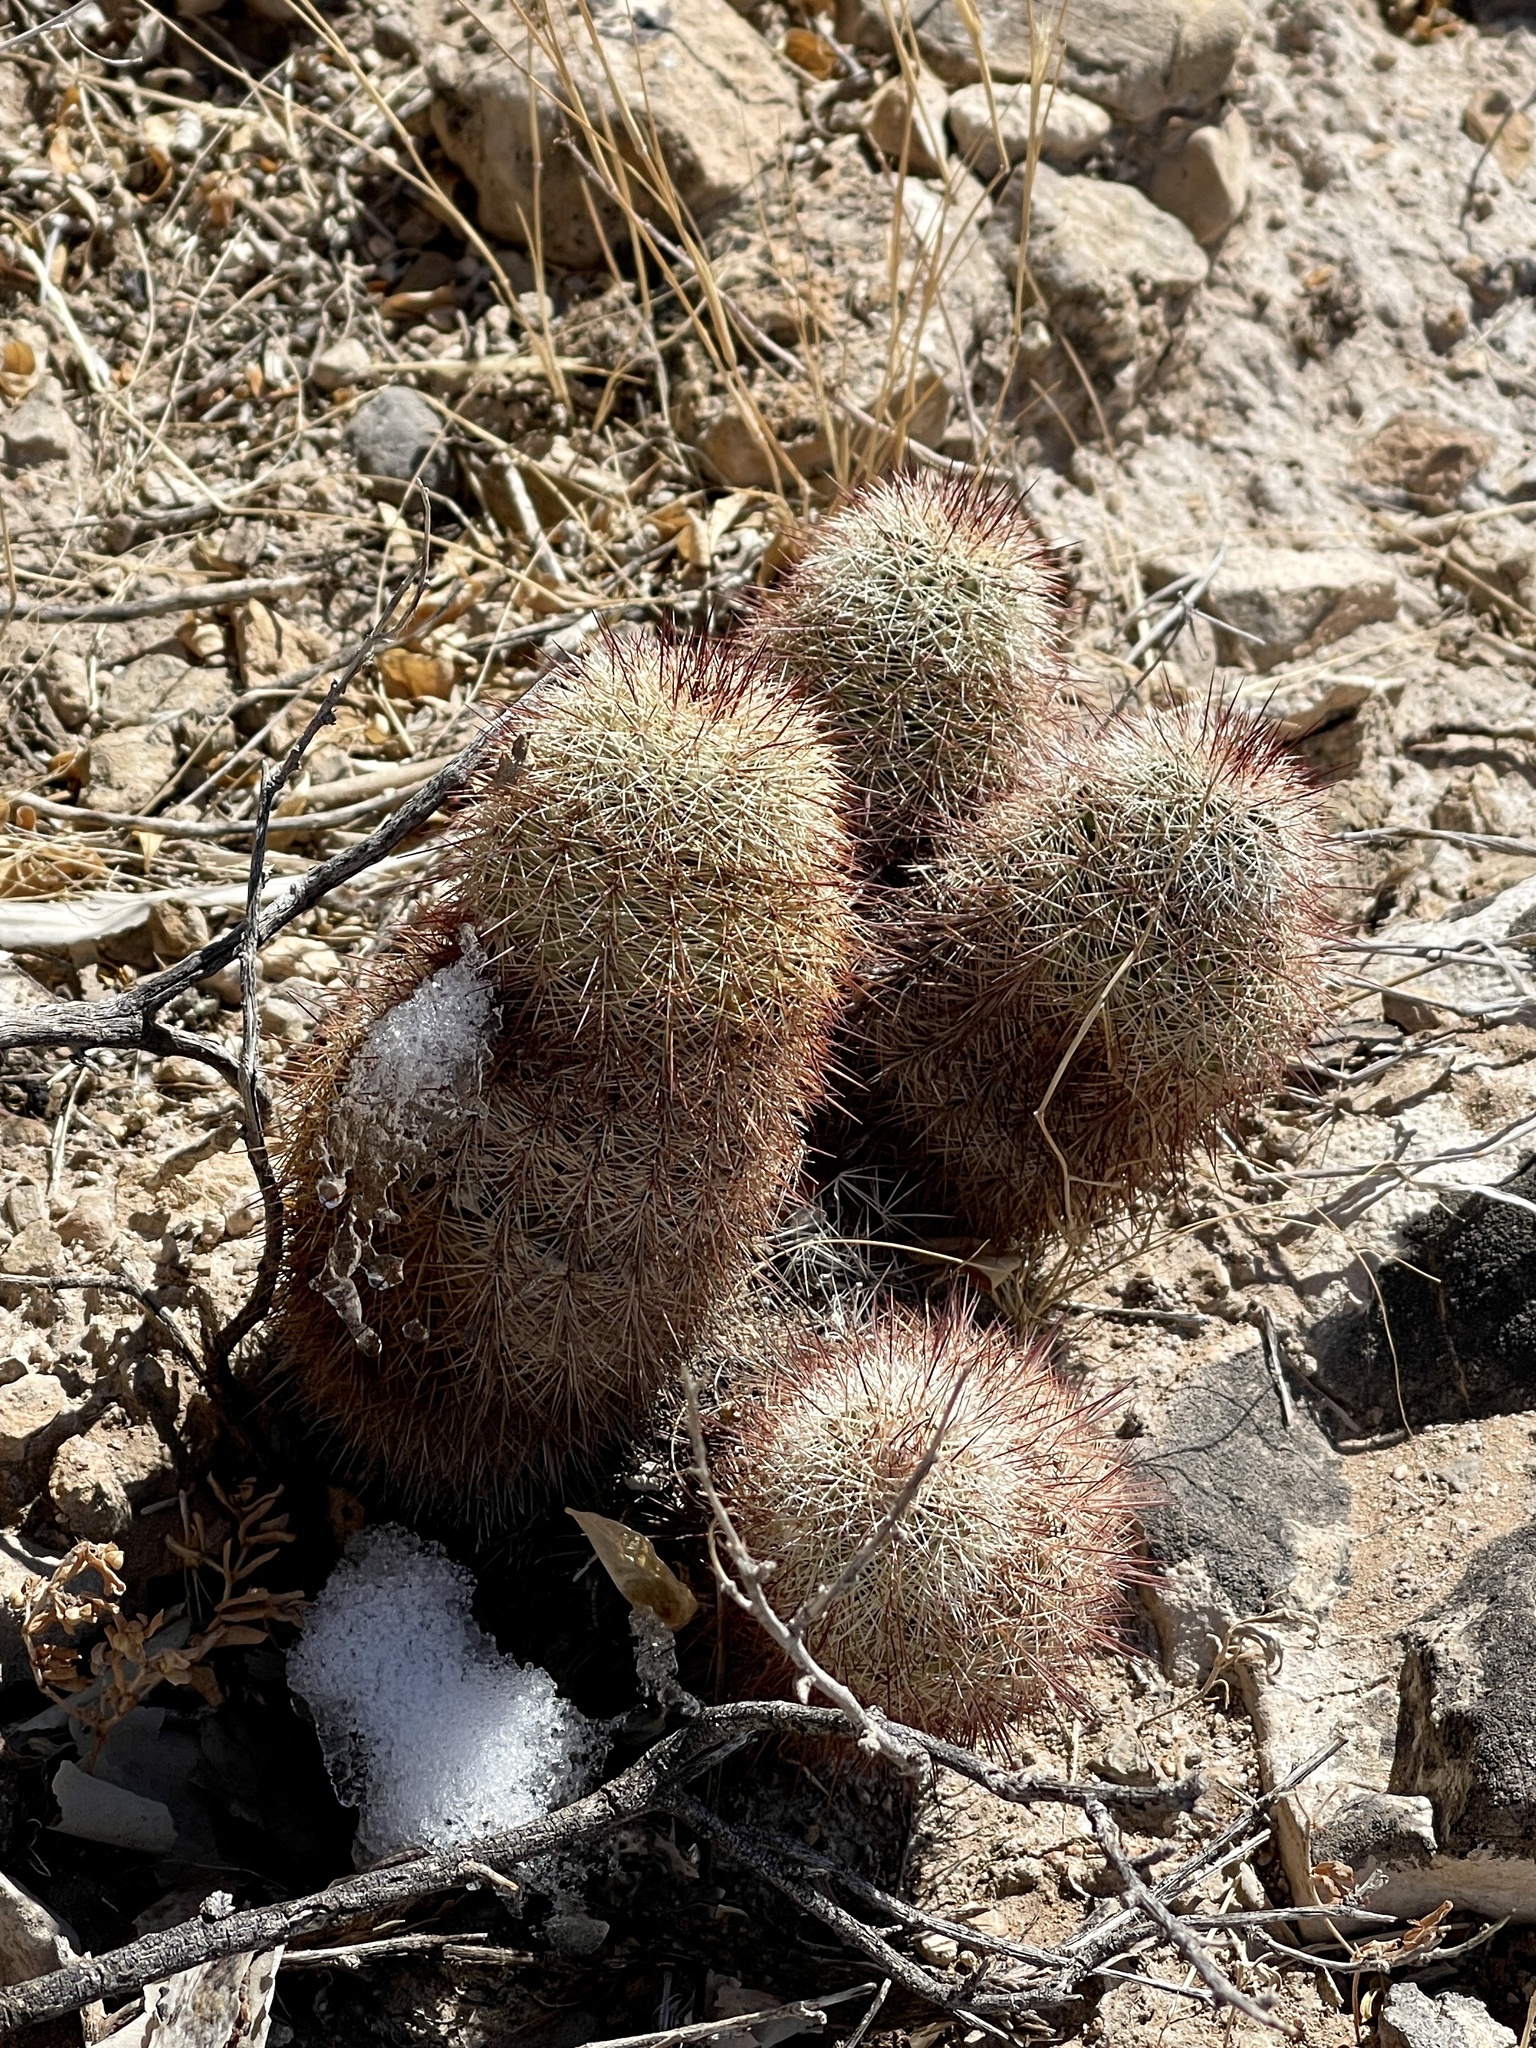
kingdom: Plantae
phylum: Tracheophyta
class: Magnoliopsida
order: Caryophyllales
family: Cactaceae
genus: Echinocereus
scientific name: Echinocereus dasyacanthus
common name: Spiny hedgehog cactus
